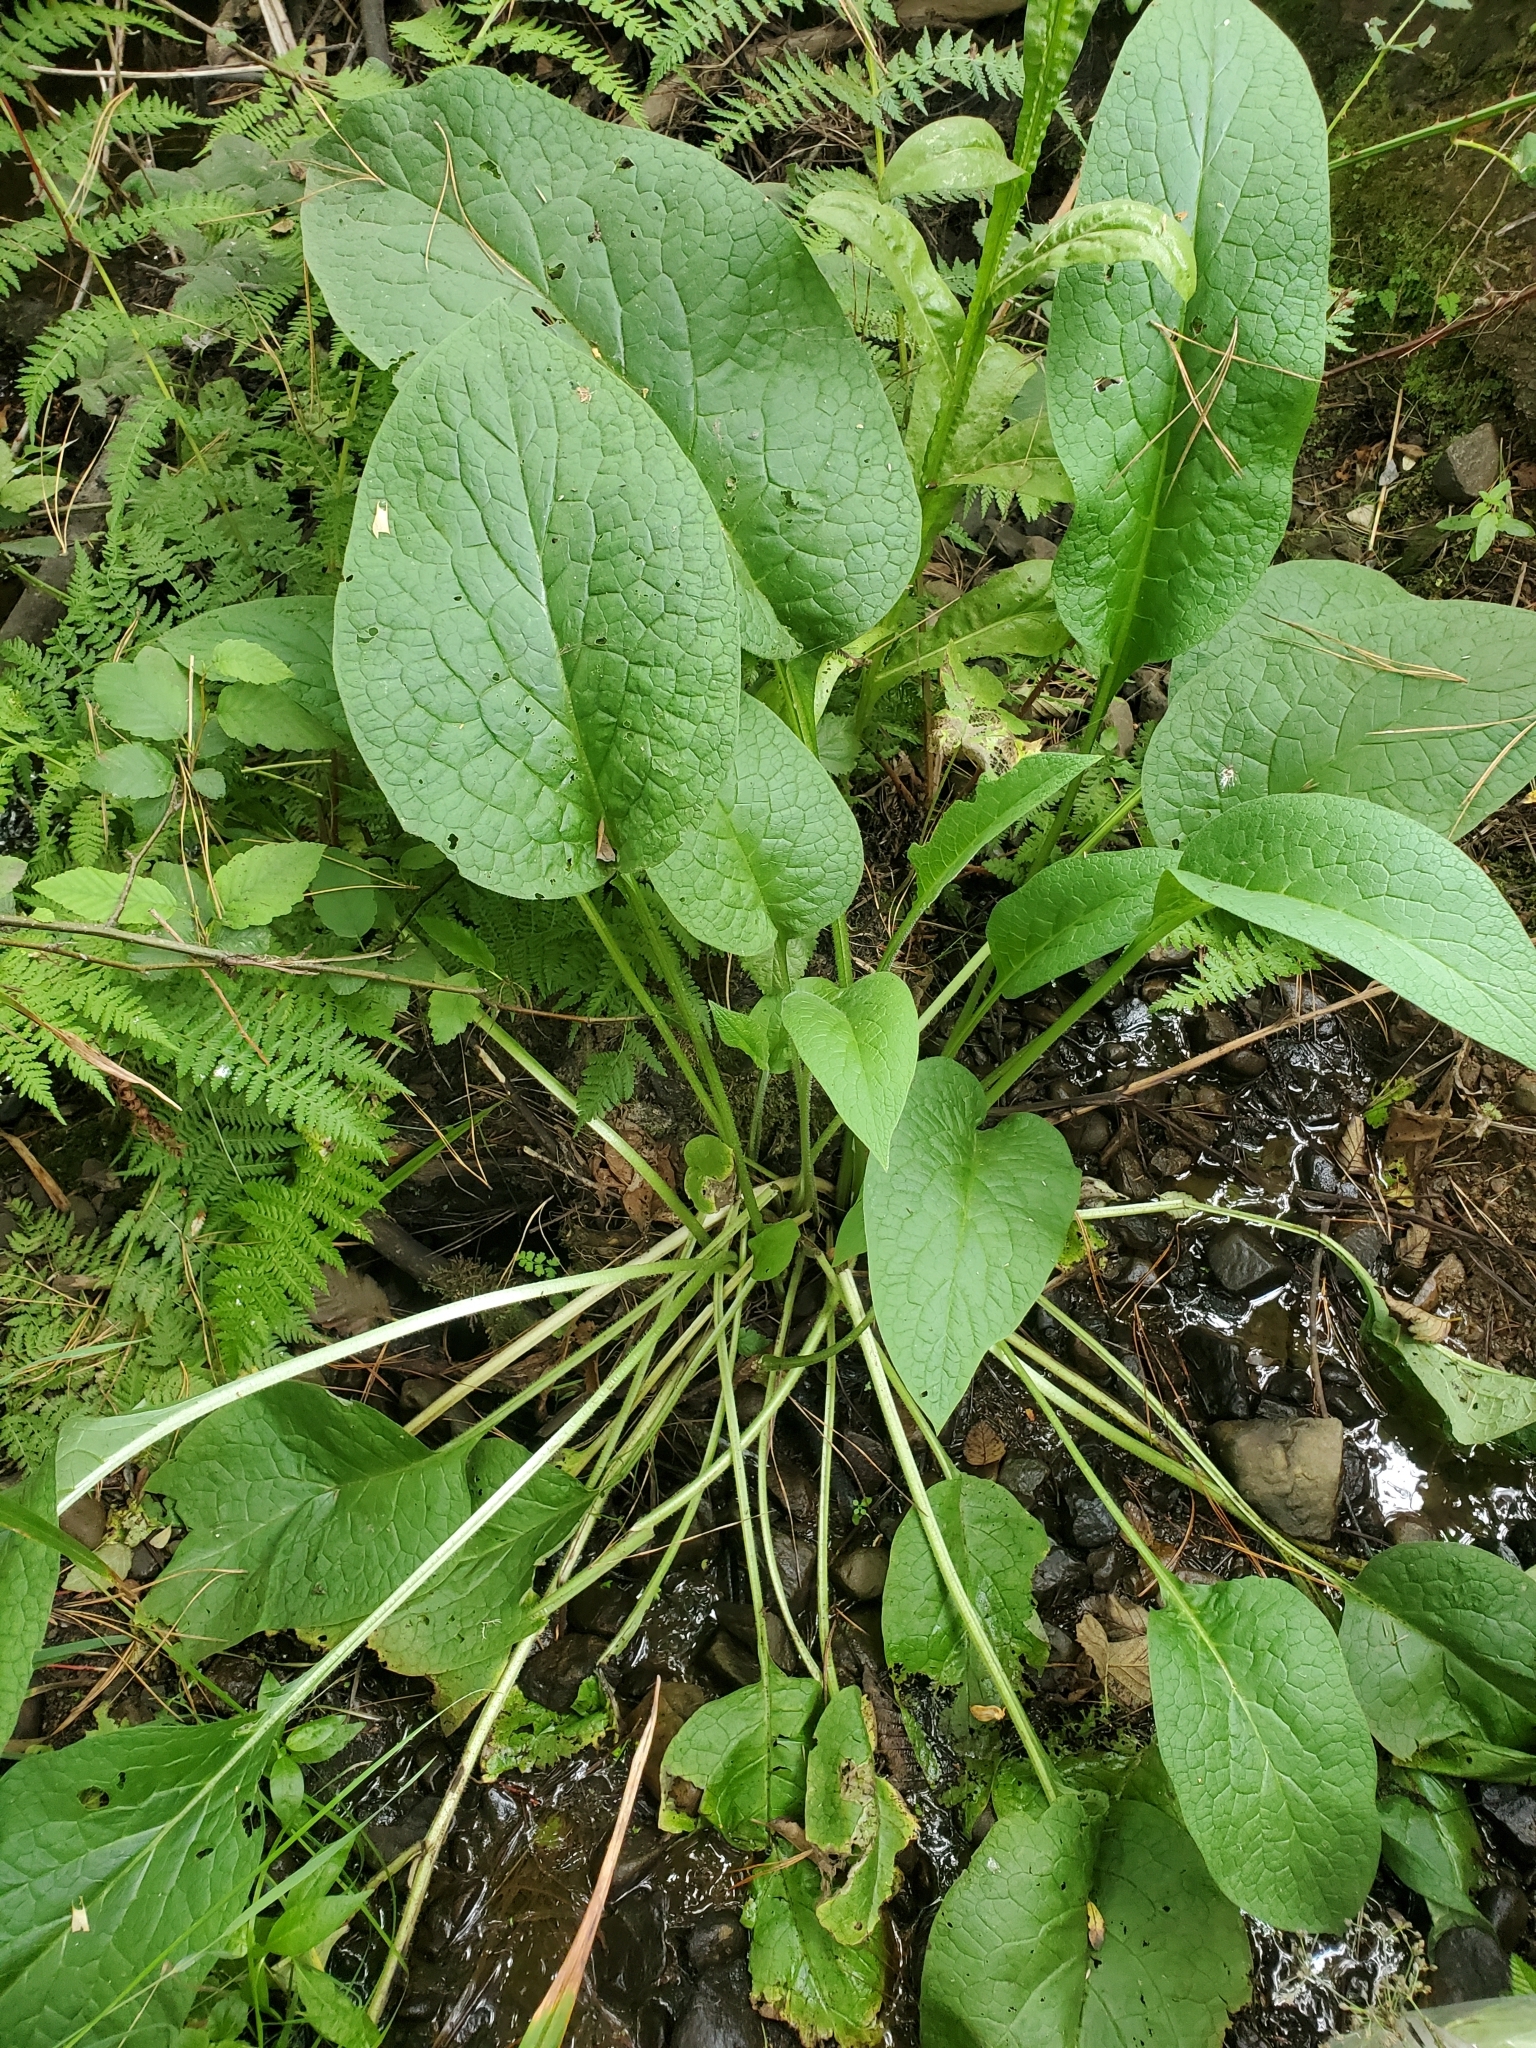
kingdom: Plantae
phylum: Tracheophyta
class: Magnoliopsida
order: Boraginales
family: Boraginaceae
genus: Symphytum
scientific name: Symphytum officinale
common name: Common comfrey
